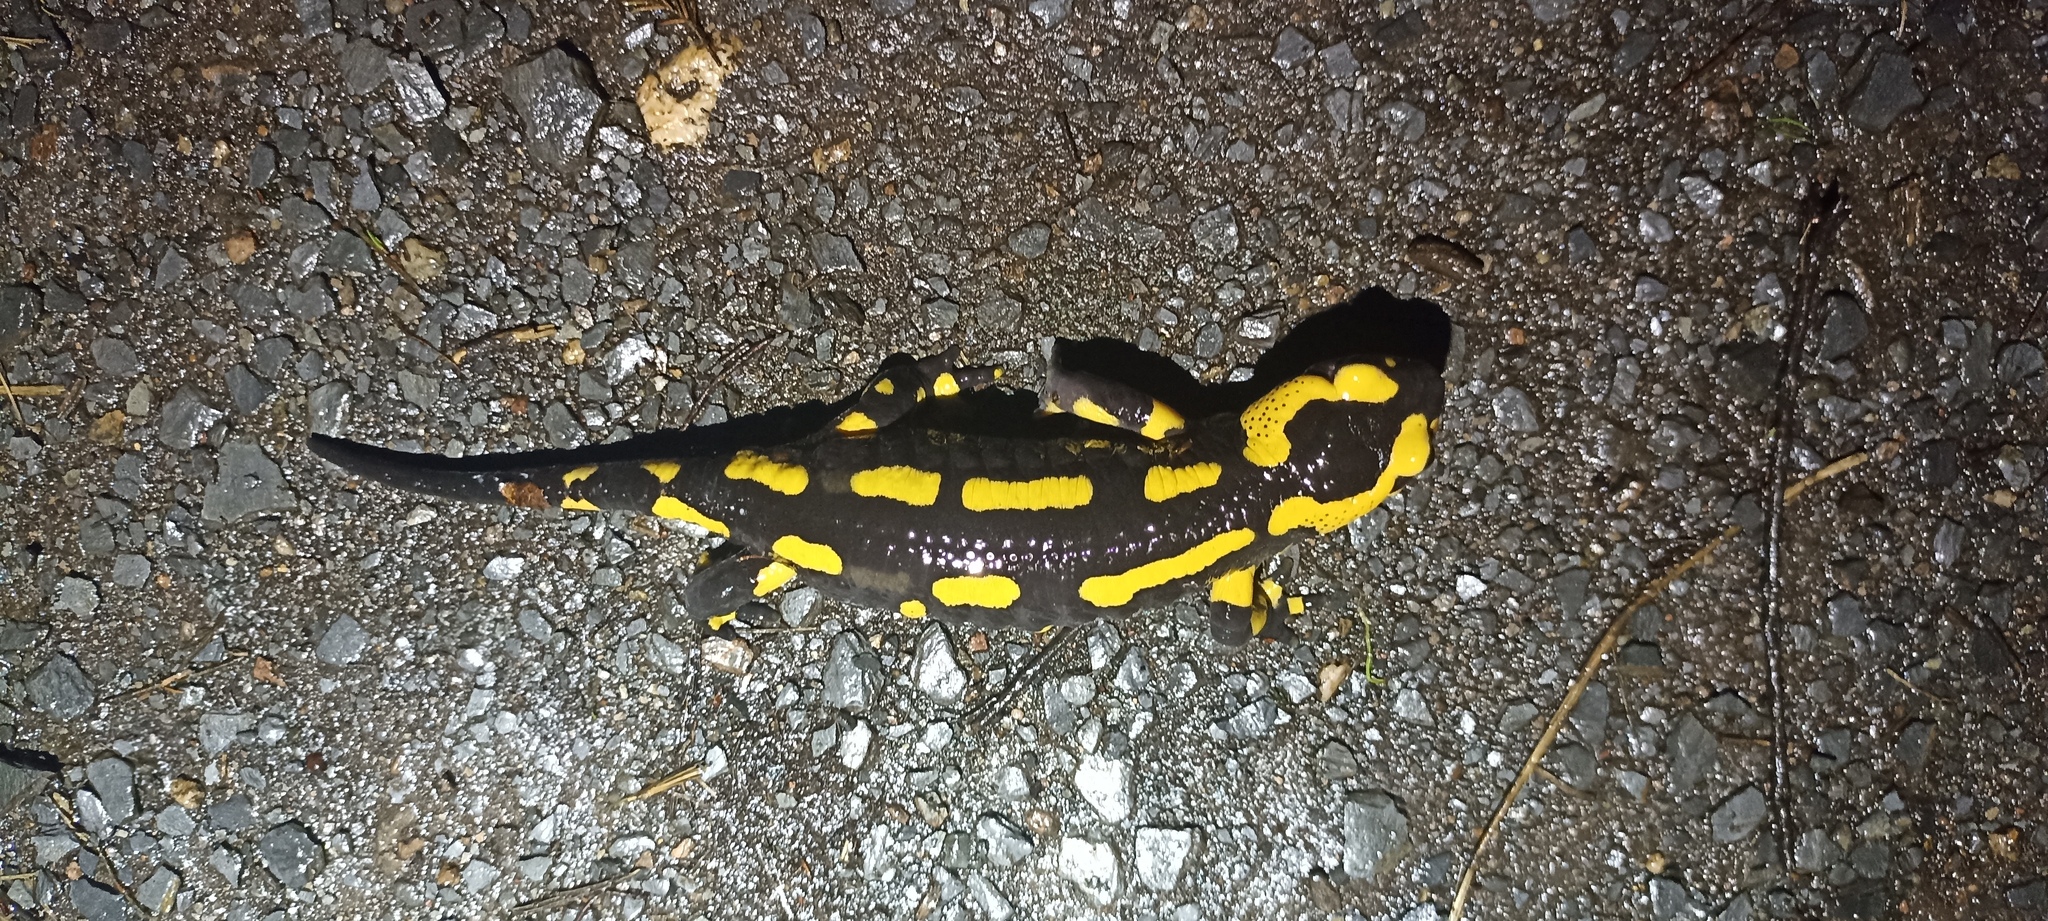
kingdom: Animalia
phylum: Chordata
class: Amphibia
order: Caudata
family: Salamandridae
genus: Salamandra
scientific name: Salamandra salamandra
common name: Fire salamander
